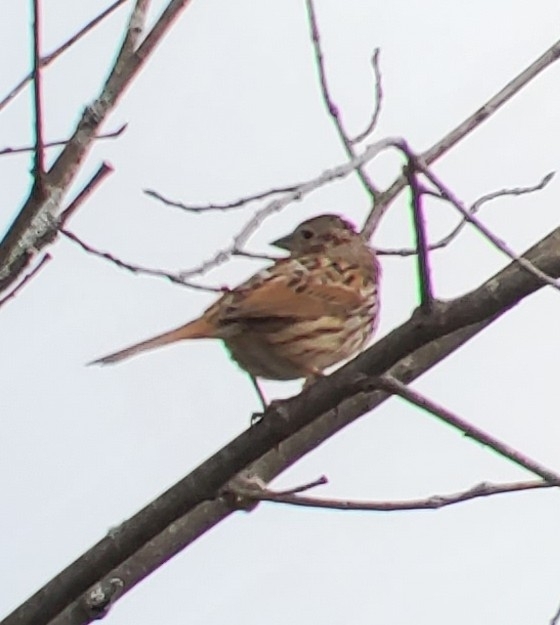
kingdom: Animalia
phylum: Chordata
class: Aves
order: Passeriformes
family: Passerellidae
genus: Melospiza
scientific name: Melospiza melodia
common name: Song sparrow
